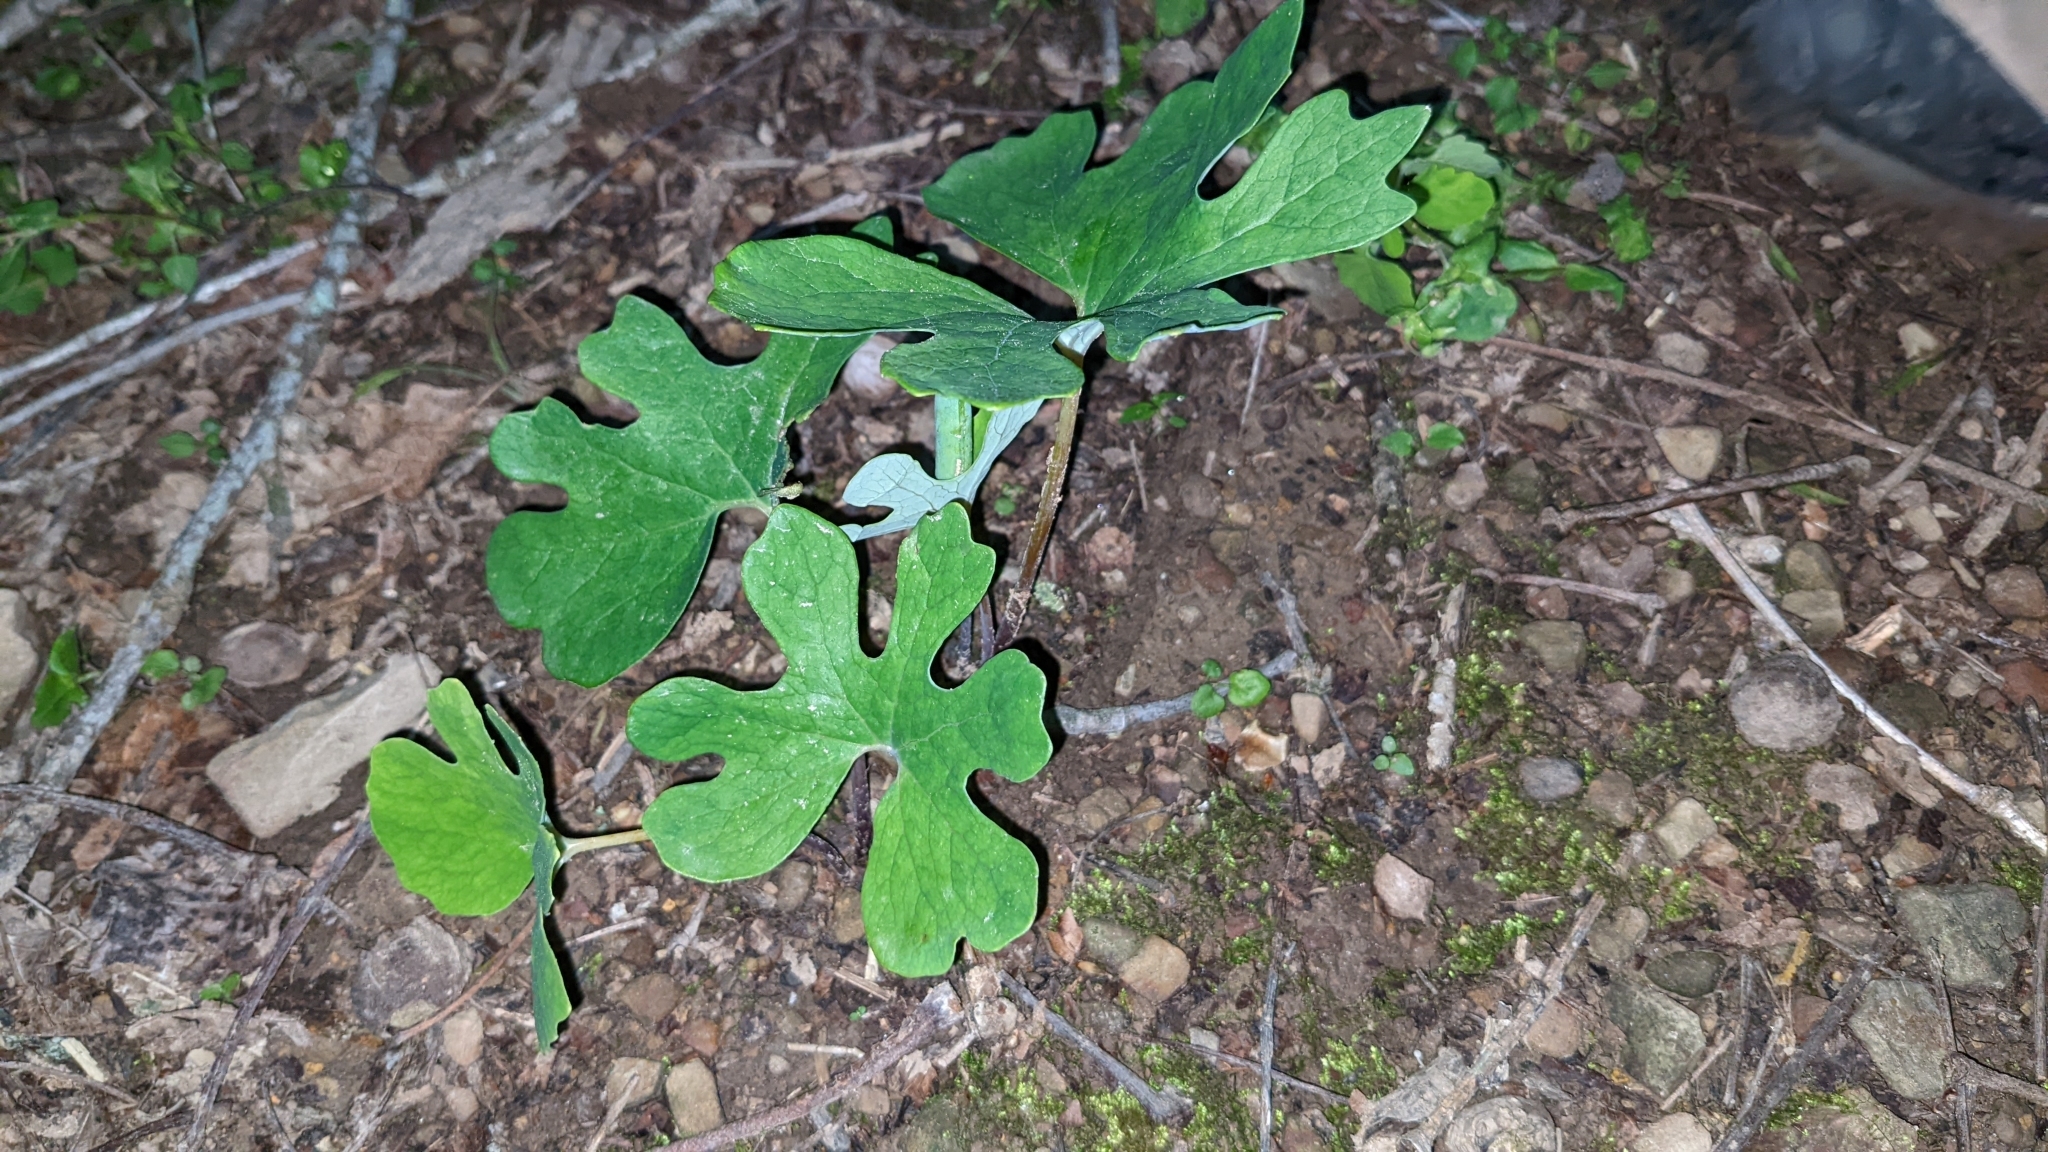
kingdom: Plantae
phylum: Tracheophyta
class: Magnoliopsida
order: Ranunculales
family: Papaveraceae
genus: Sanguinaria
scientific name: Sanguinaria canadensis
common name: Bloodroot
